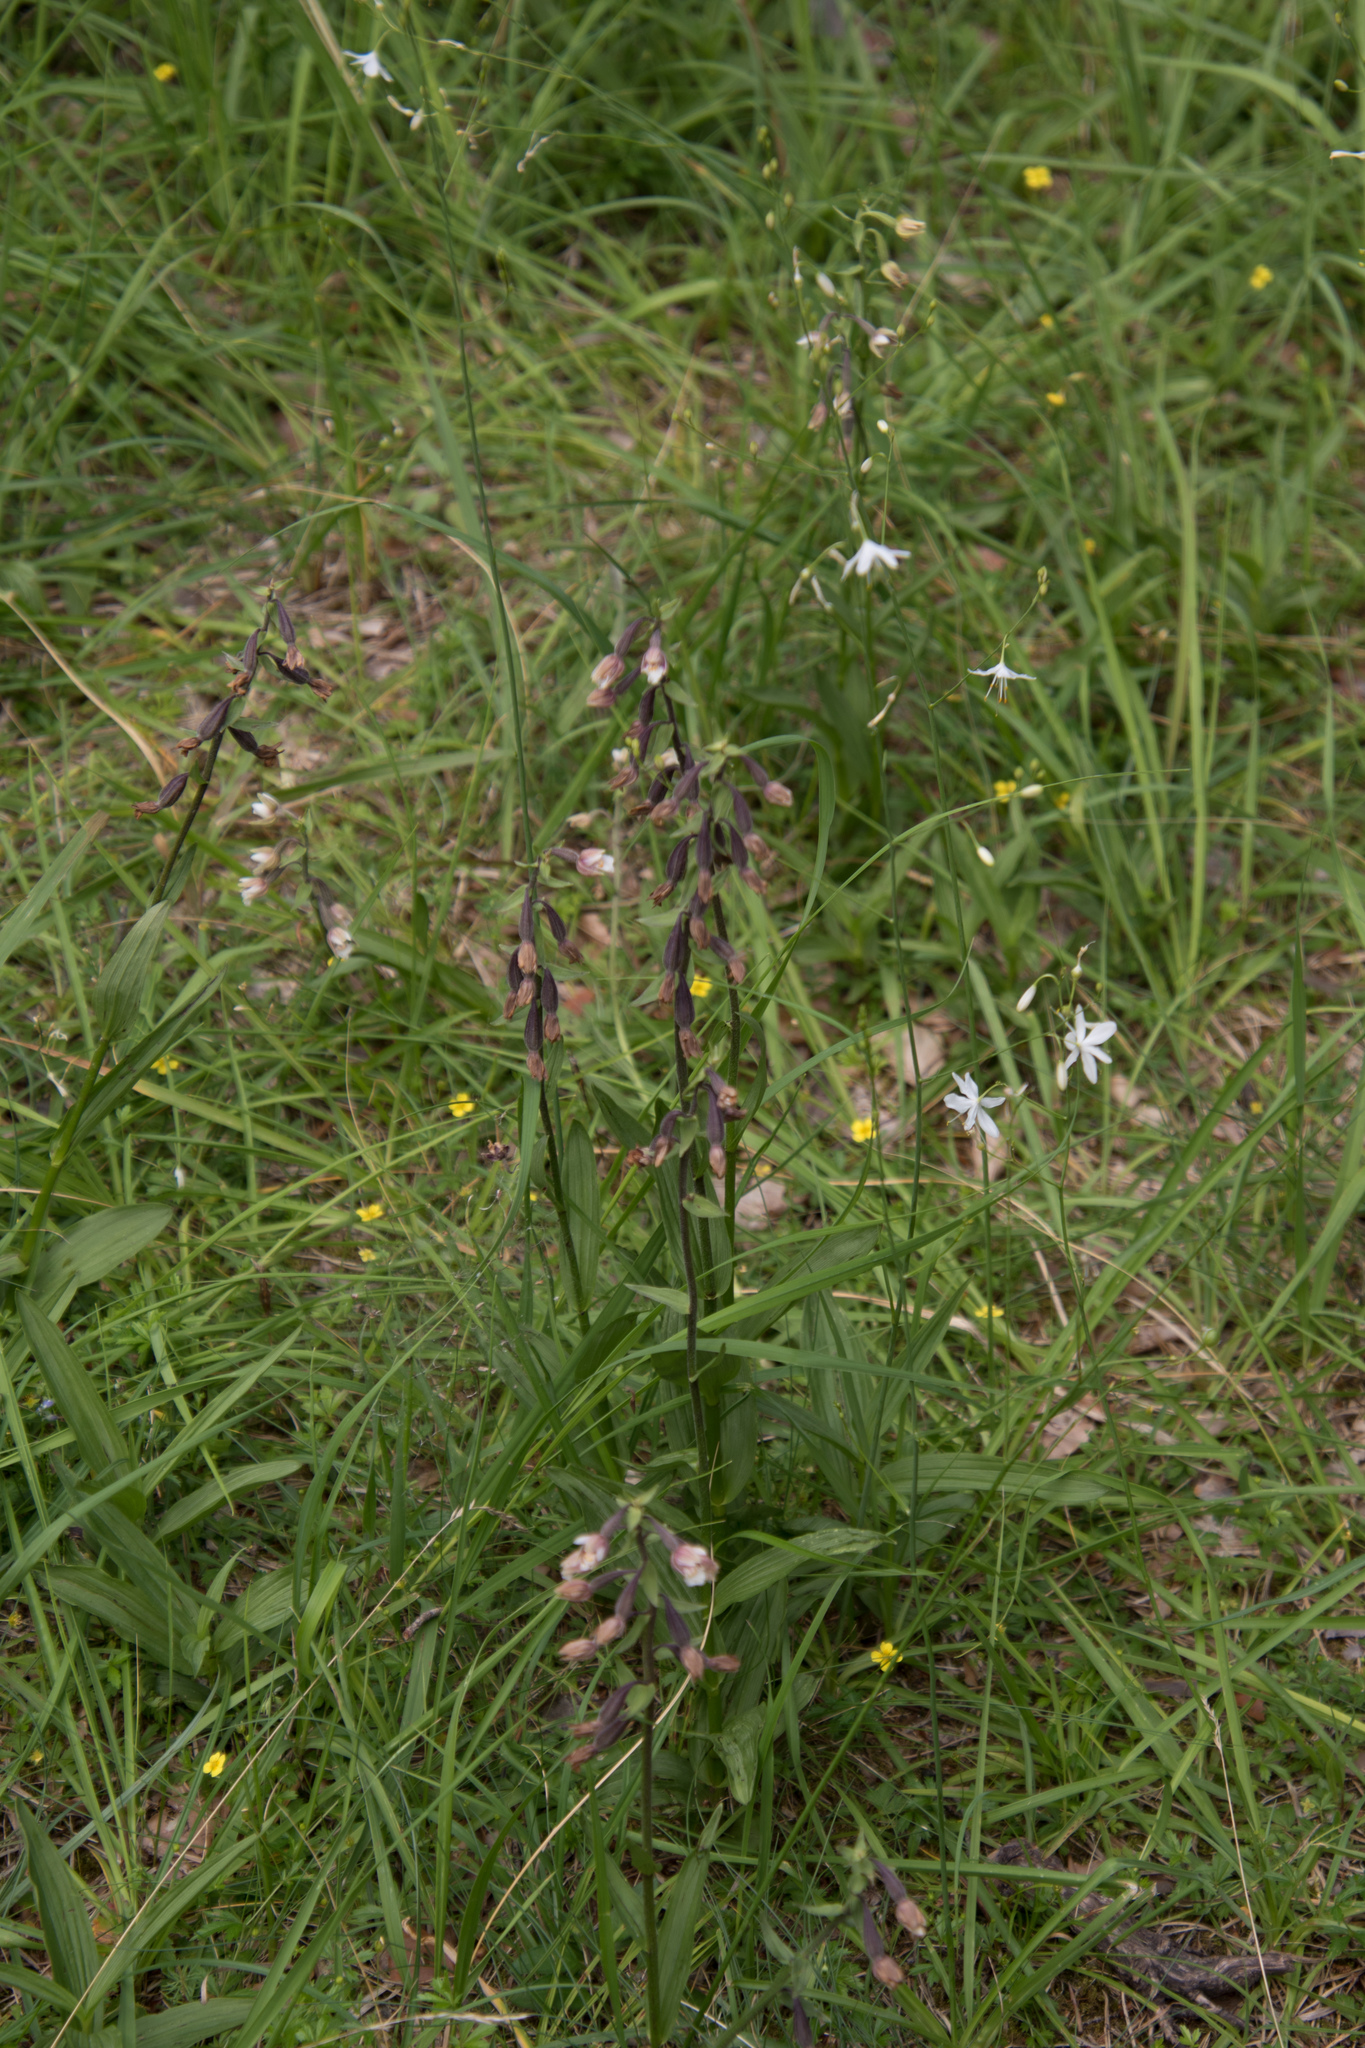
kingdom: Plantae
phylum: Tracheophyta
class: Liliopsida
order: Asparagales
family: Orchidaceae
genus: Epipactis
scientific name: Epipactis palustris
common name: Marsh helleborine
